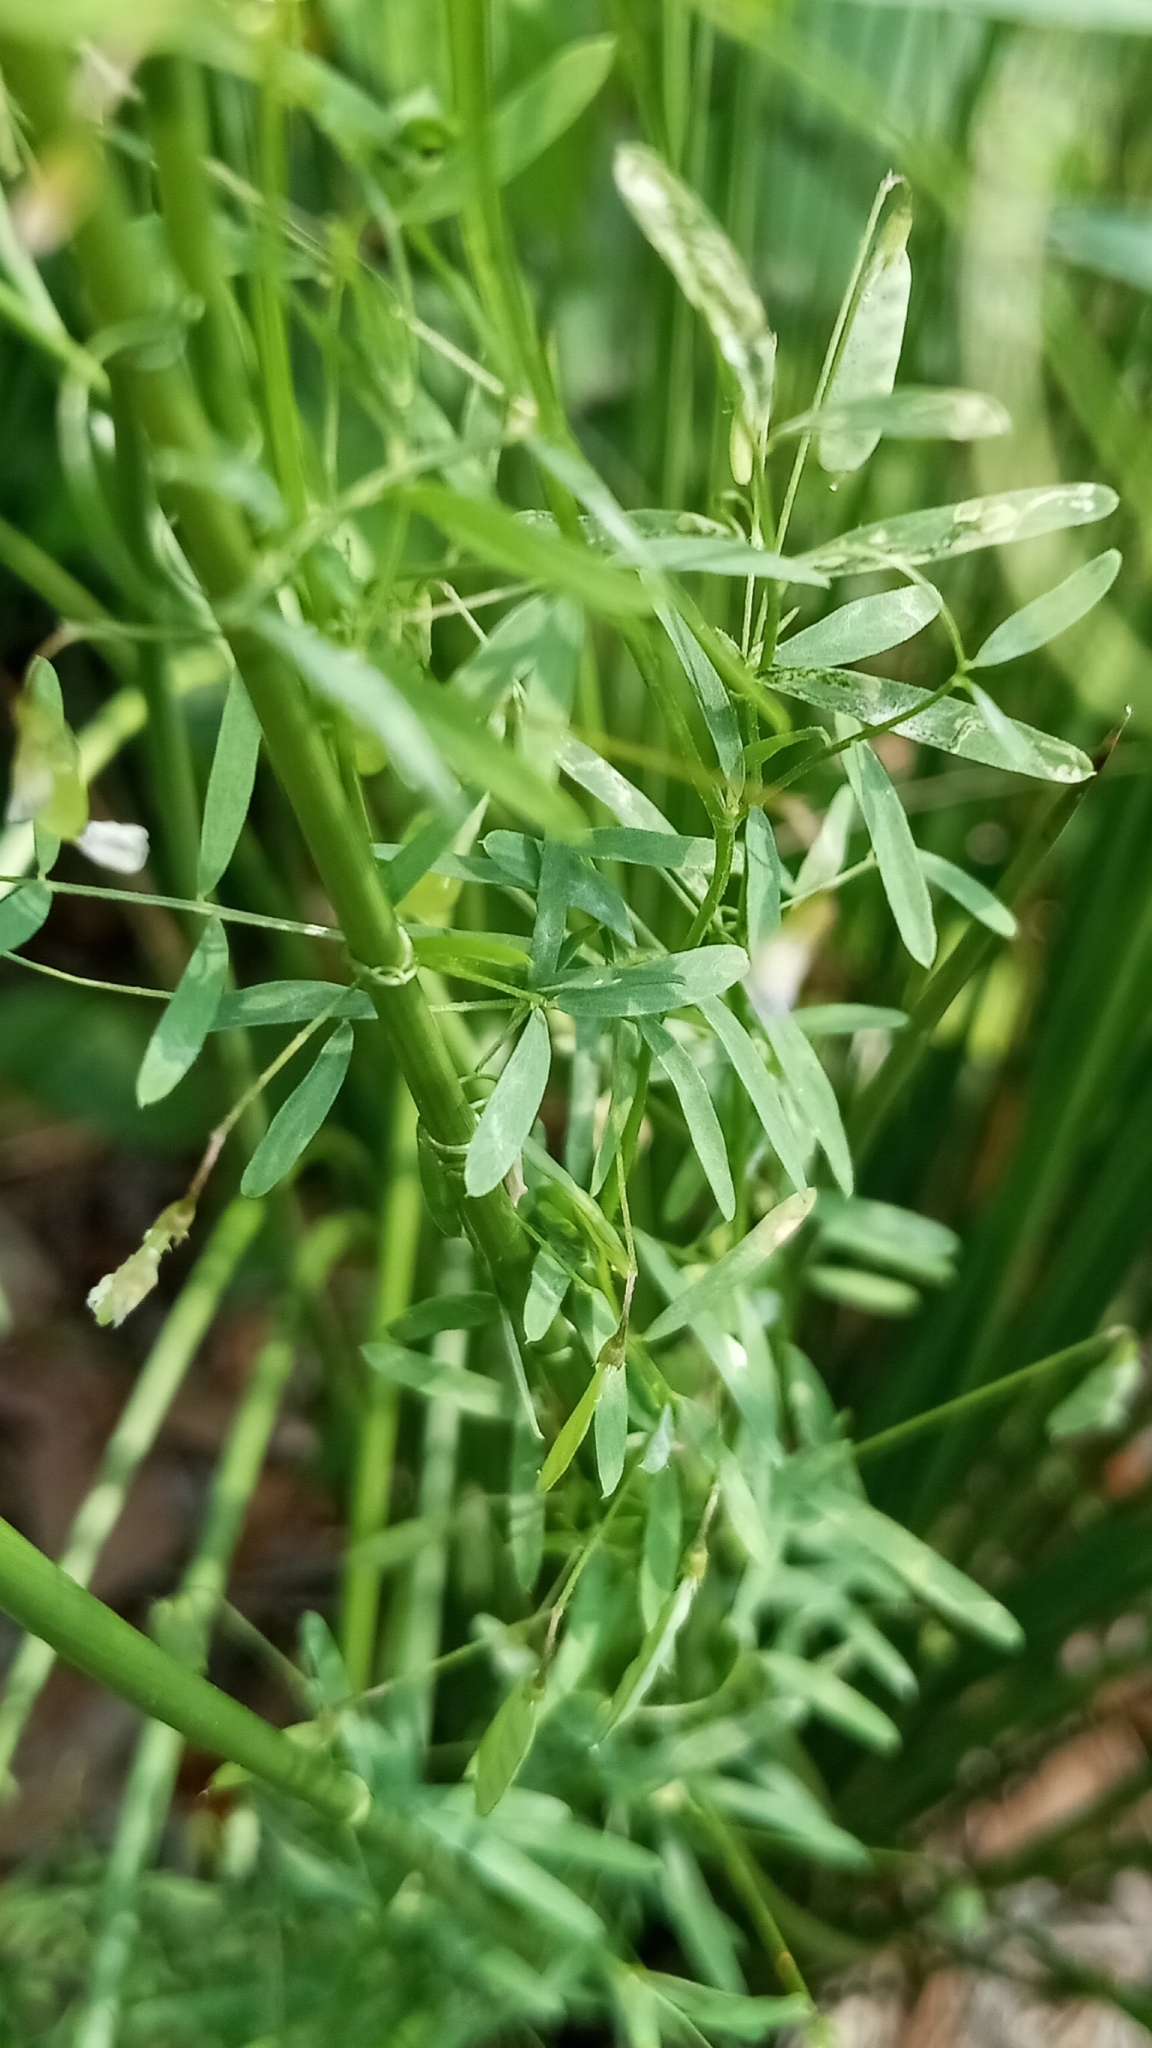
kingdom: Plantae
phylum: Tracheophyta
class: Magnoliopsida
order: Fabales
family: Fabaceae
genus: Vicia
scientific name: Vicia tetrasperma
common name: Smooth tare
